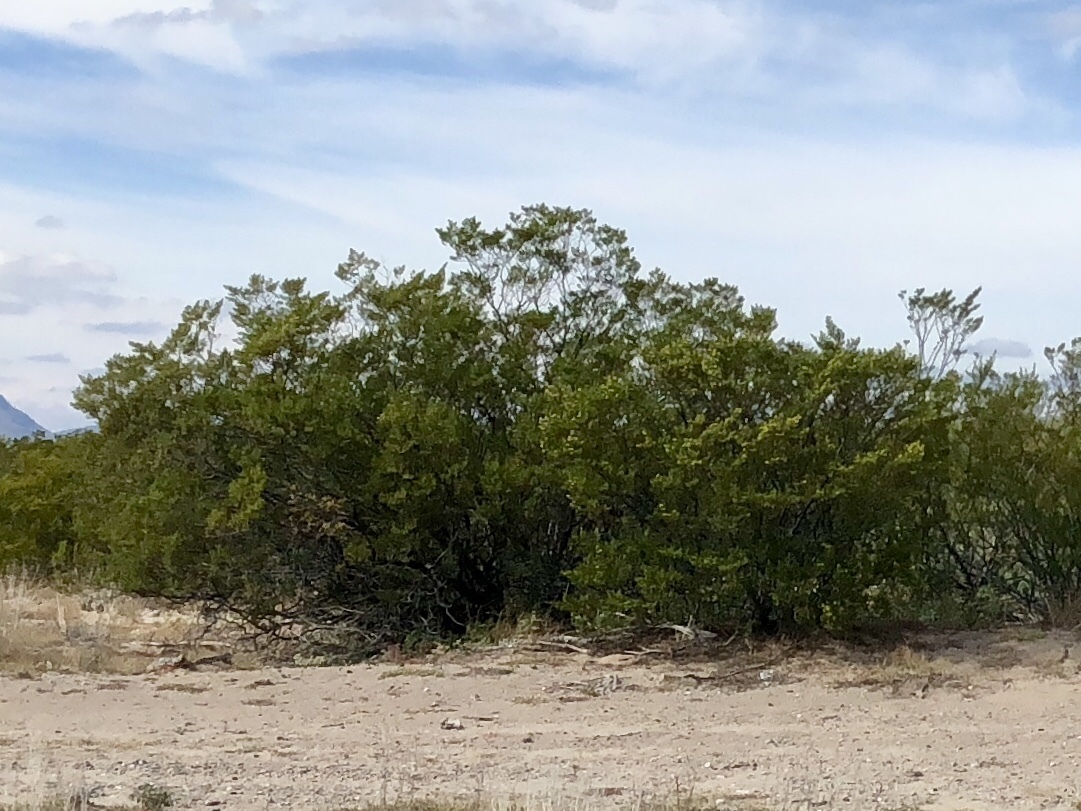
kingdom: Plantae
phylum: Tracheophyta
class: Magnoliopsida
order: Zygophyllales
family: Zygophyllaceae
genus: Larrea
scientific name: Larrea tridentata
